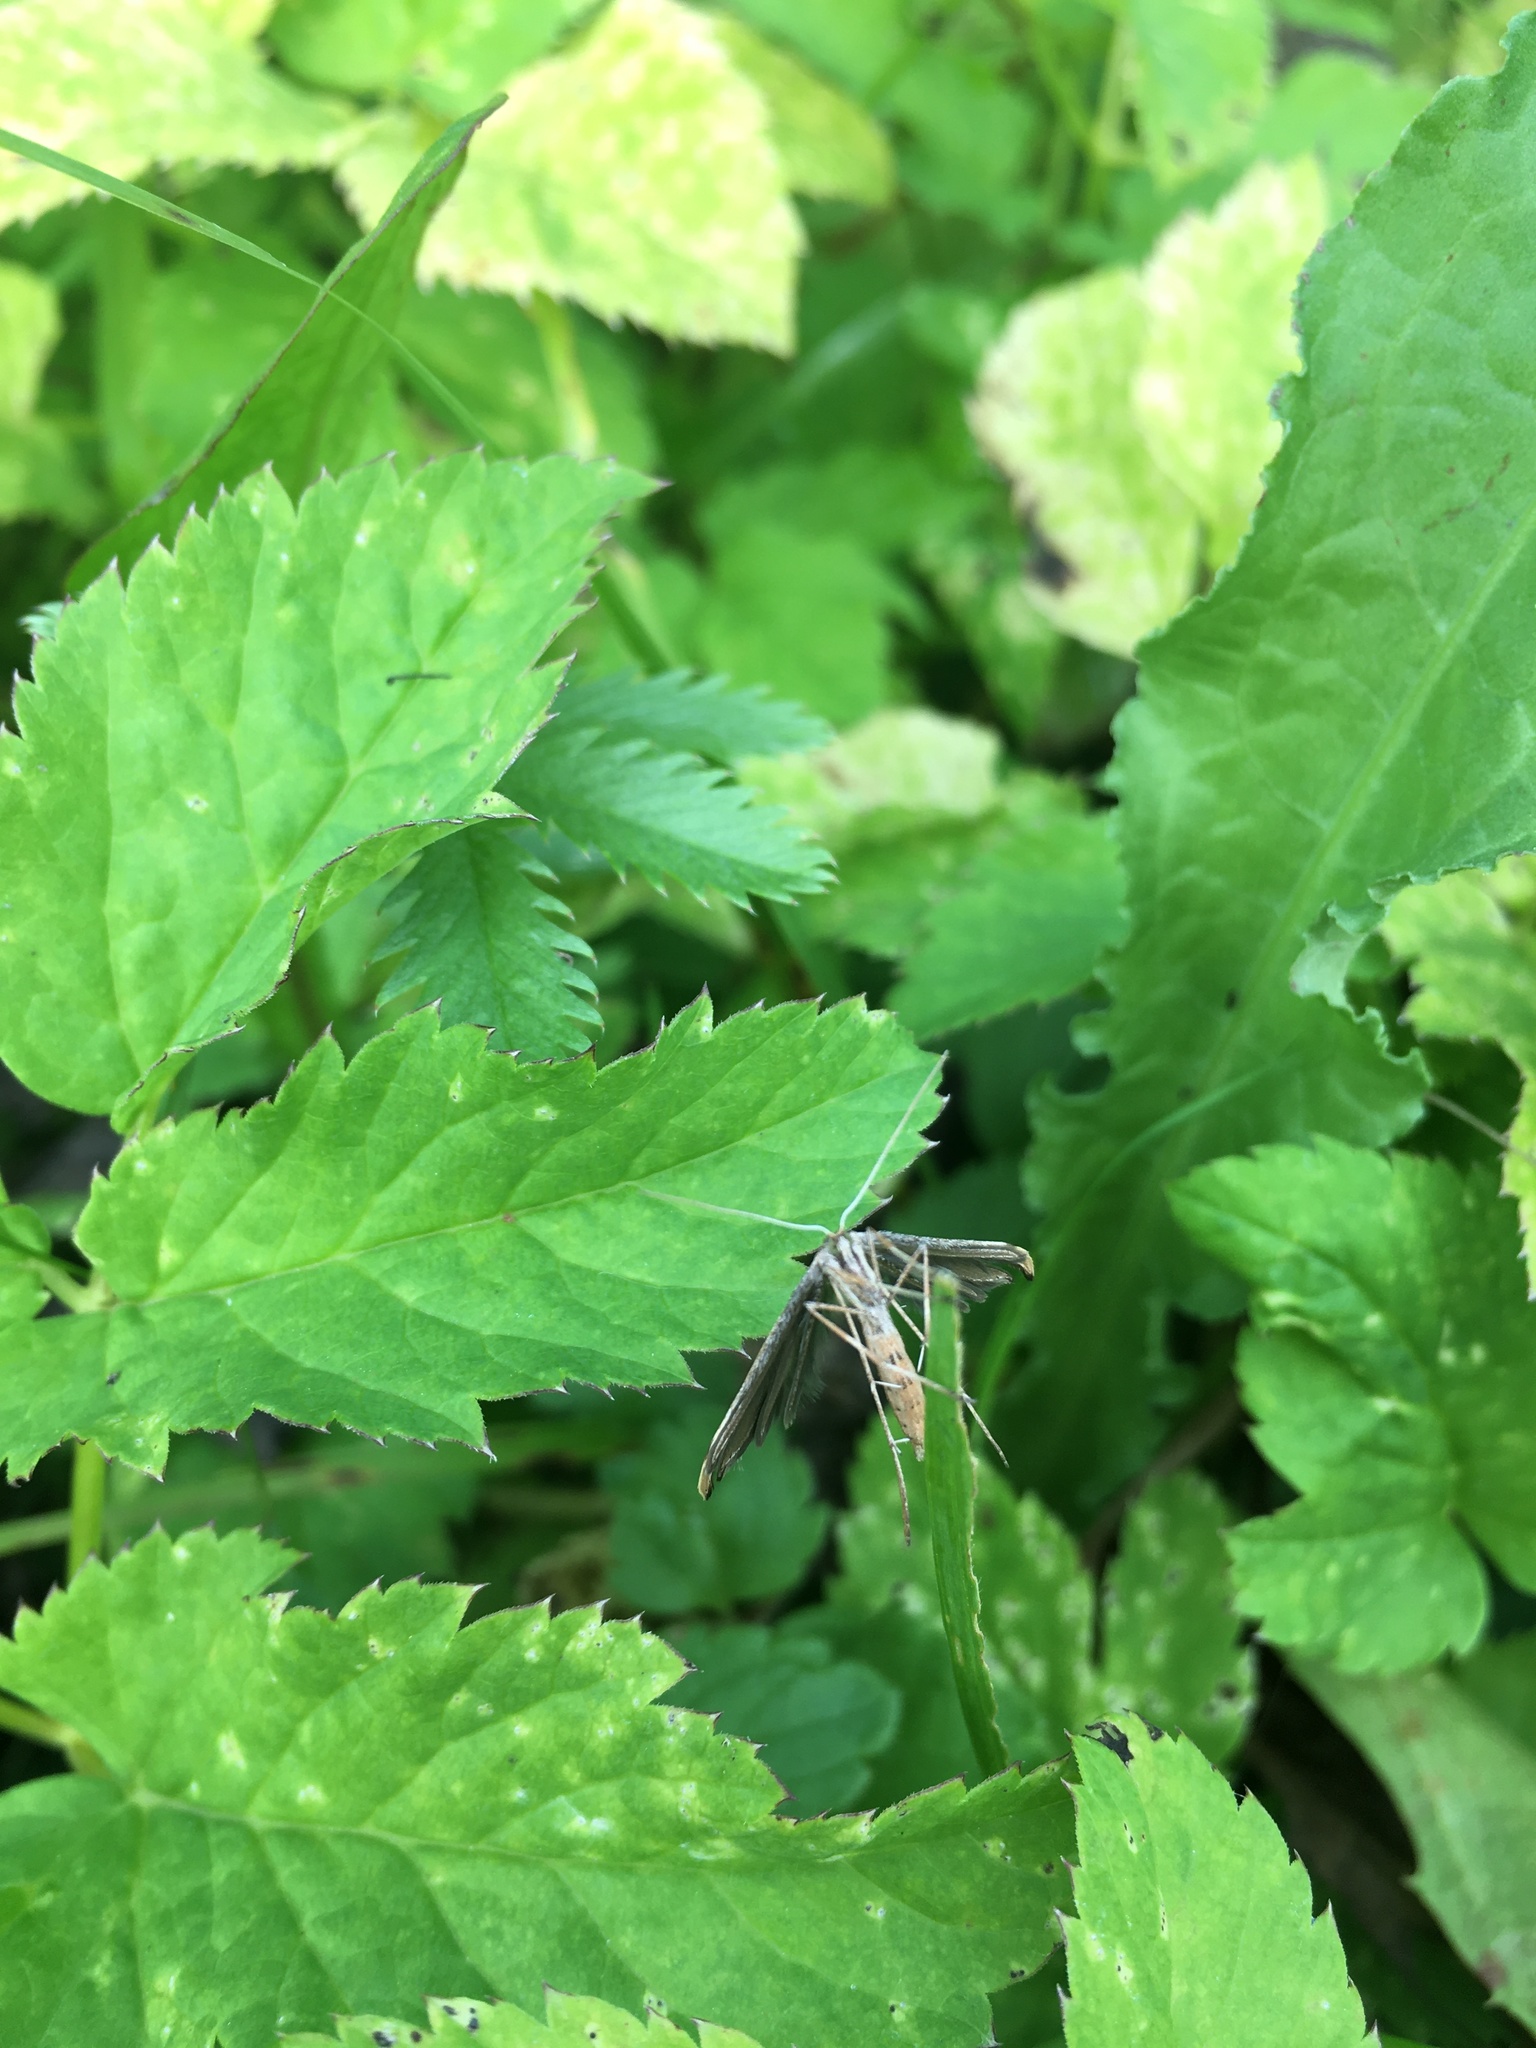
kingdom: Animalia
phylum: Arthropoda
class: Insecta
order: Lepidoptera
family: Pterophoridae
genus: Emmelina
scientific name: Emmelina monodactyla
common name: Common plume
